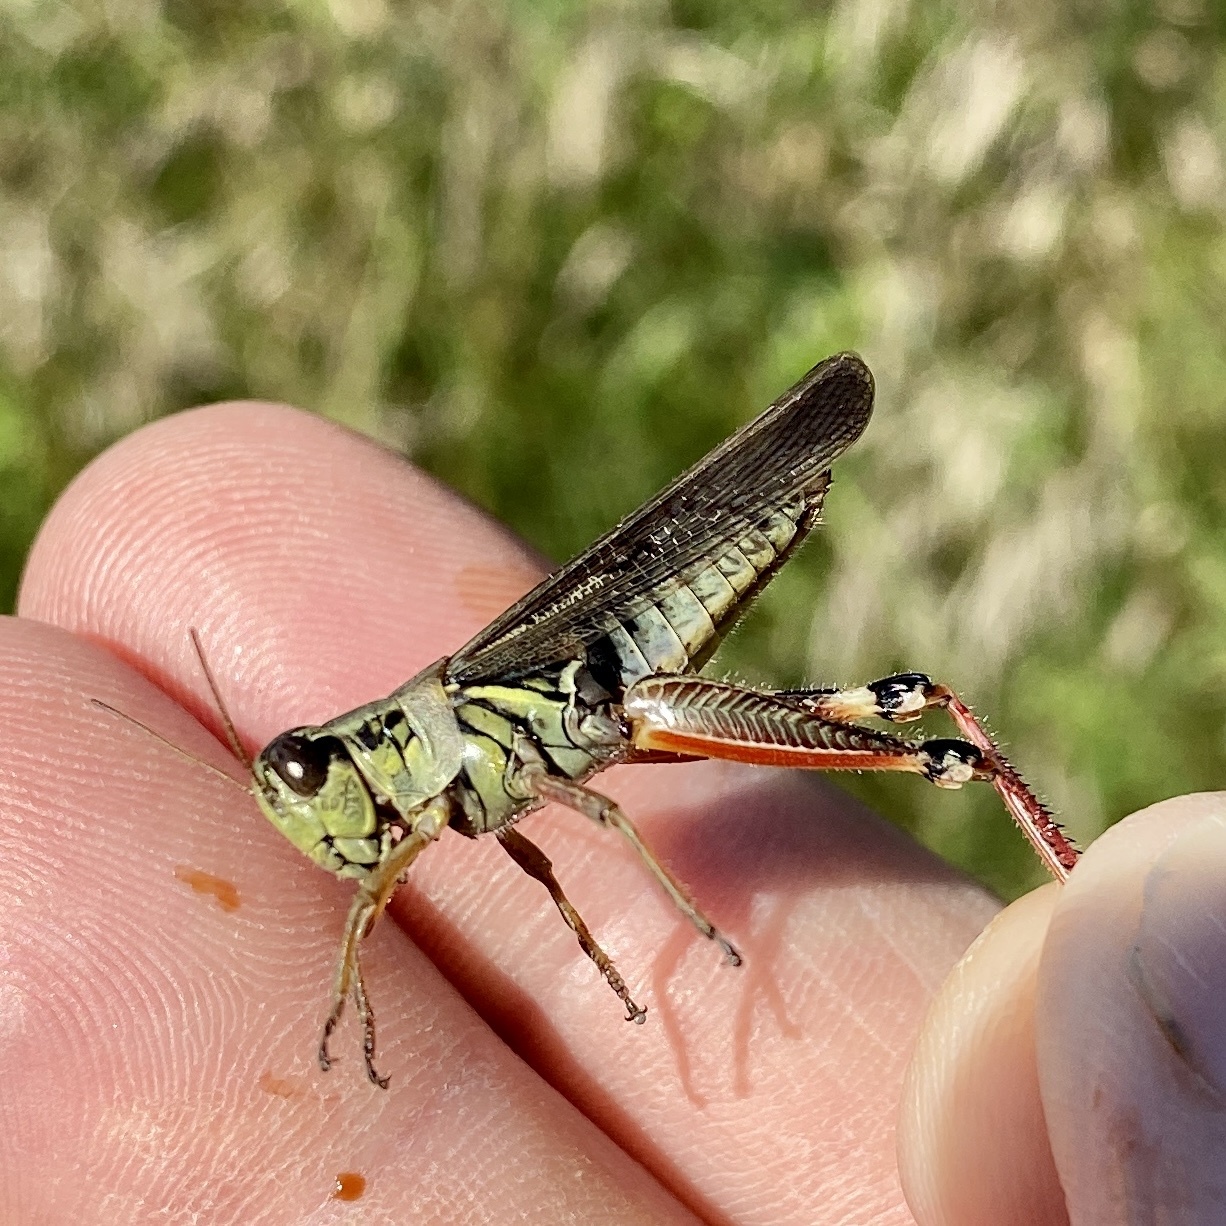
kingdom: Animalia
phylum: Arthropoda
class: Insecta
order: Orthoptera
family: Acrididae
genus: Melanoplus
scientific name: Melanoplus femurrubrum
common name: Red-legged grasshopper
